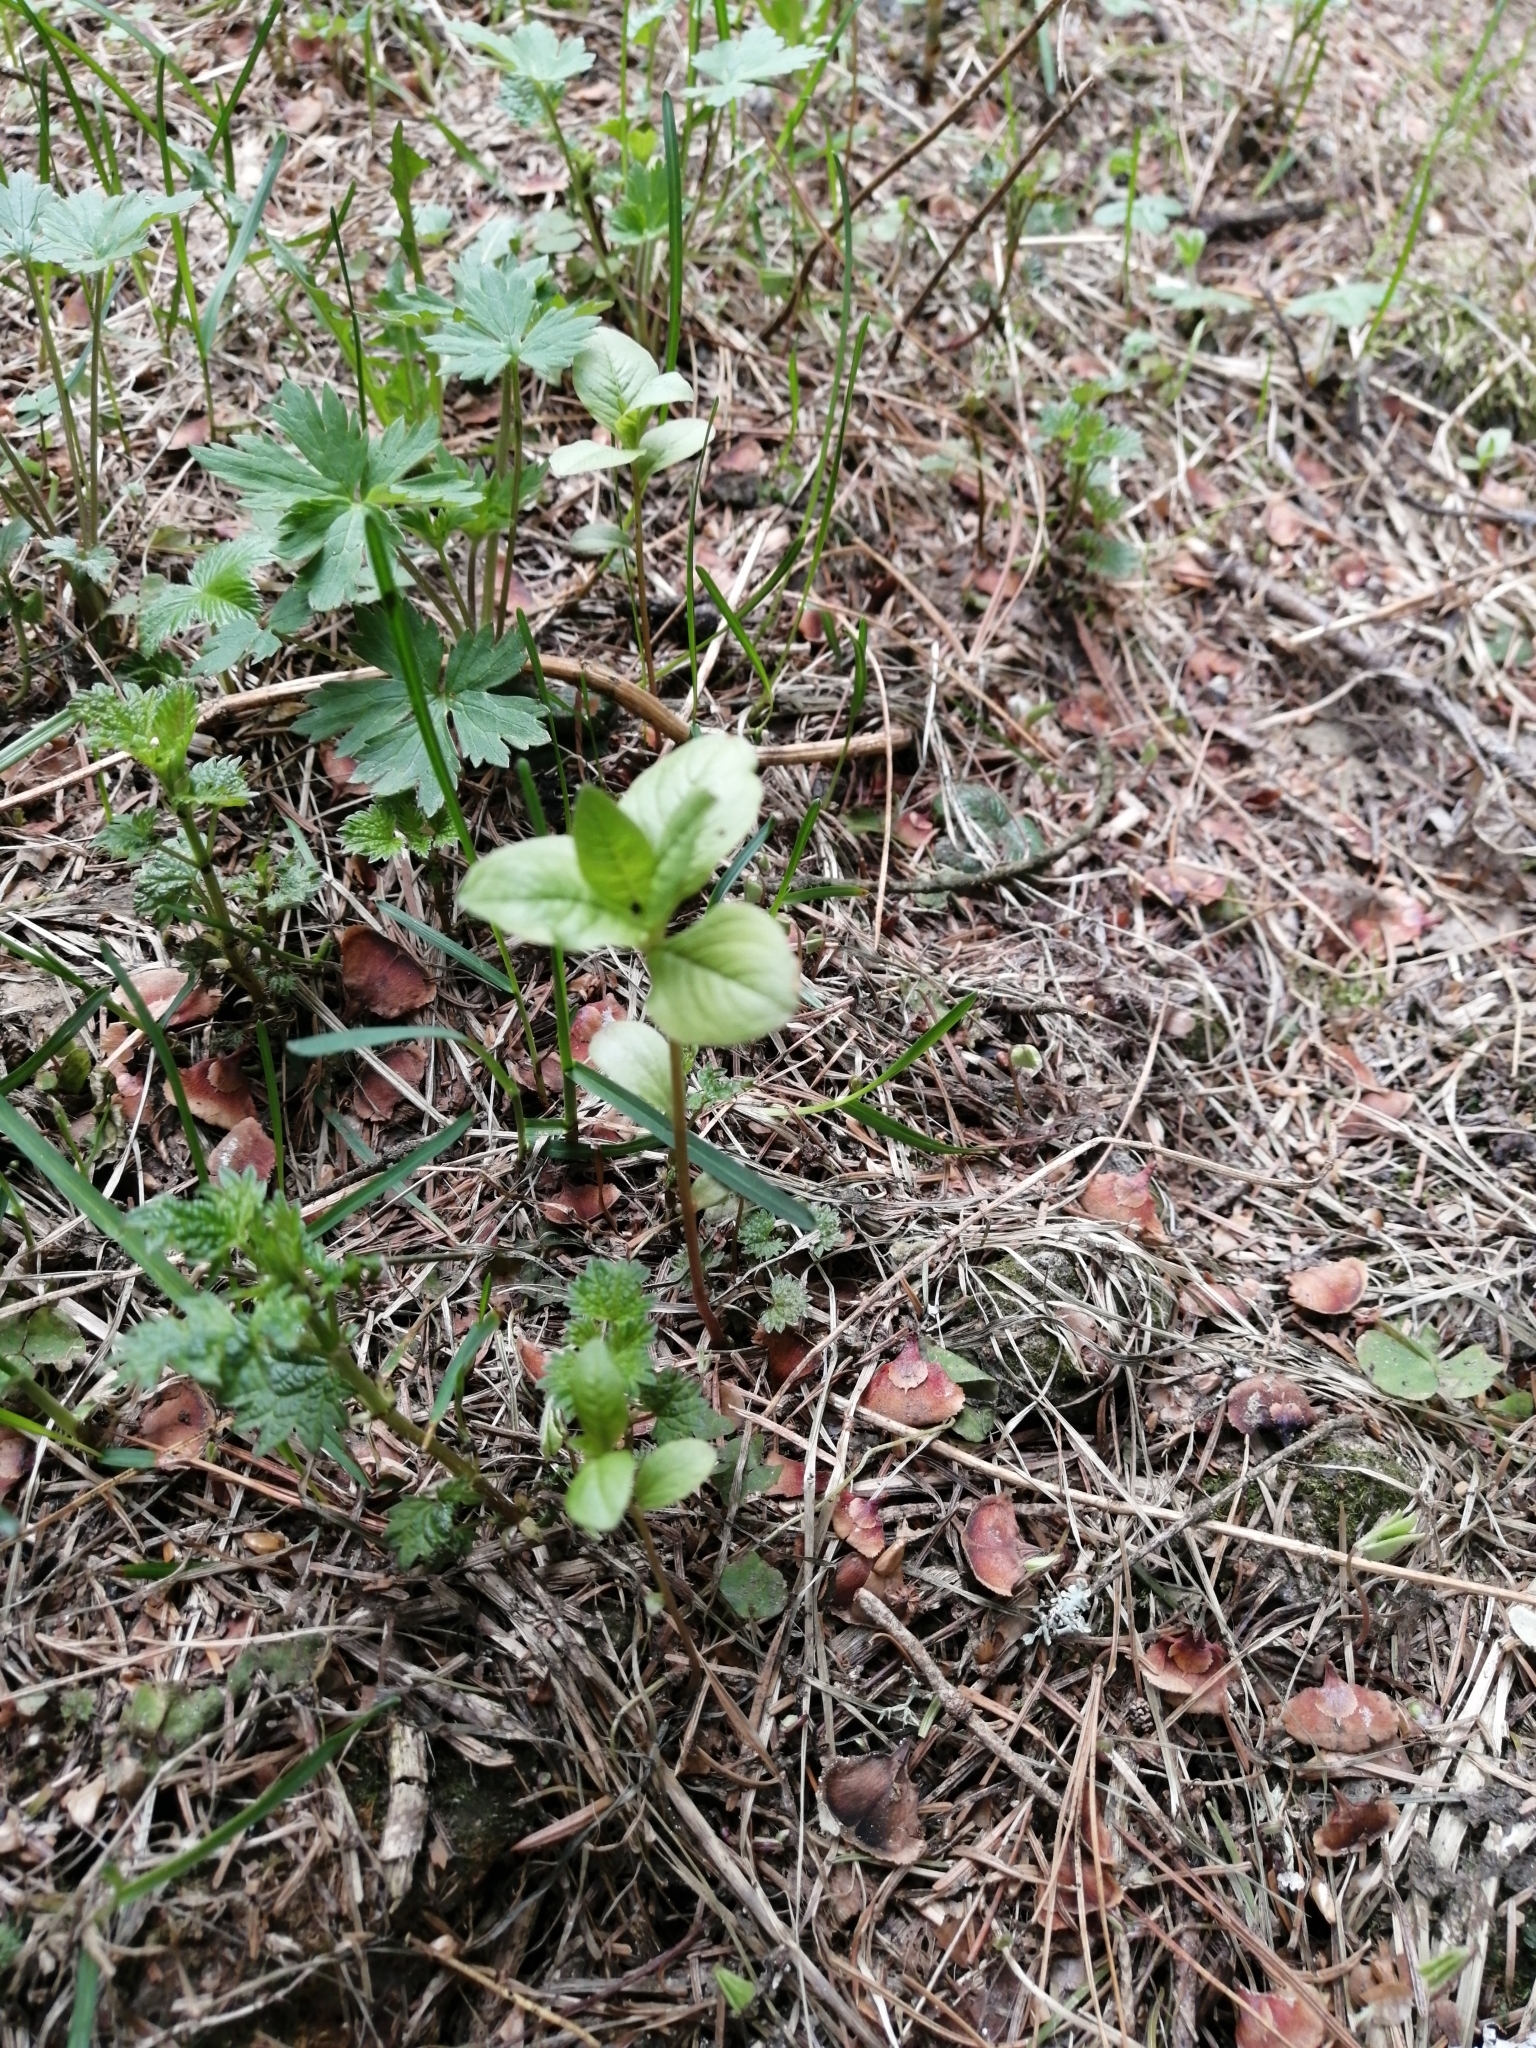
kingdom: Plantae
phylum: Tracheophyta
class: Pinopsida
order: Pinales
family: Pinaceae
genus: Abies
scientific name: Abies sibirica
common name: Siberian fir
